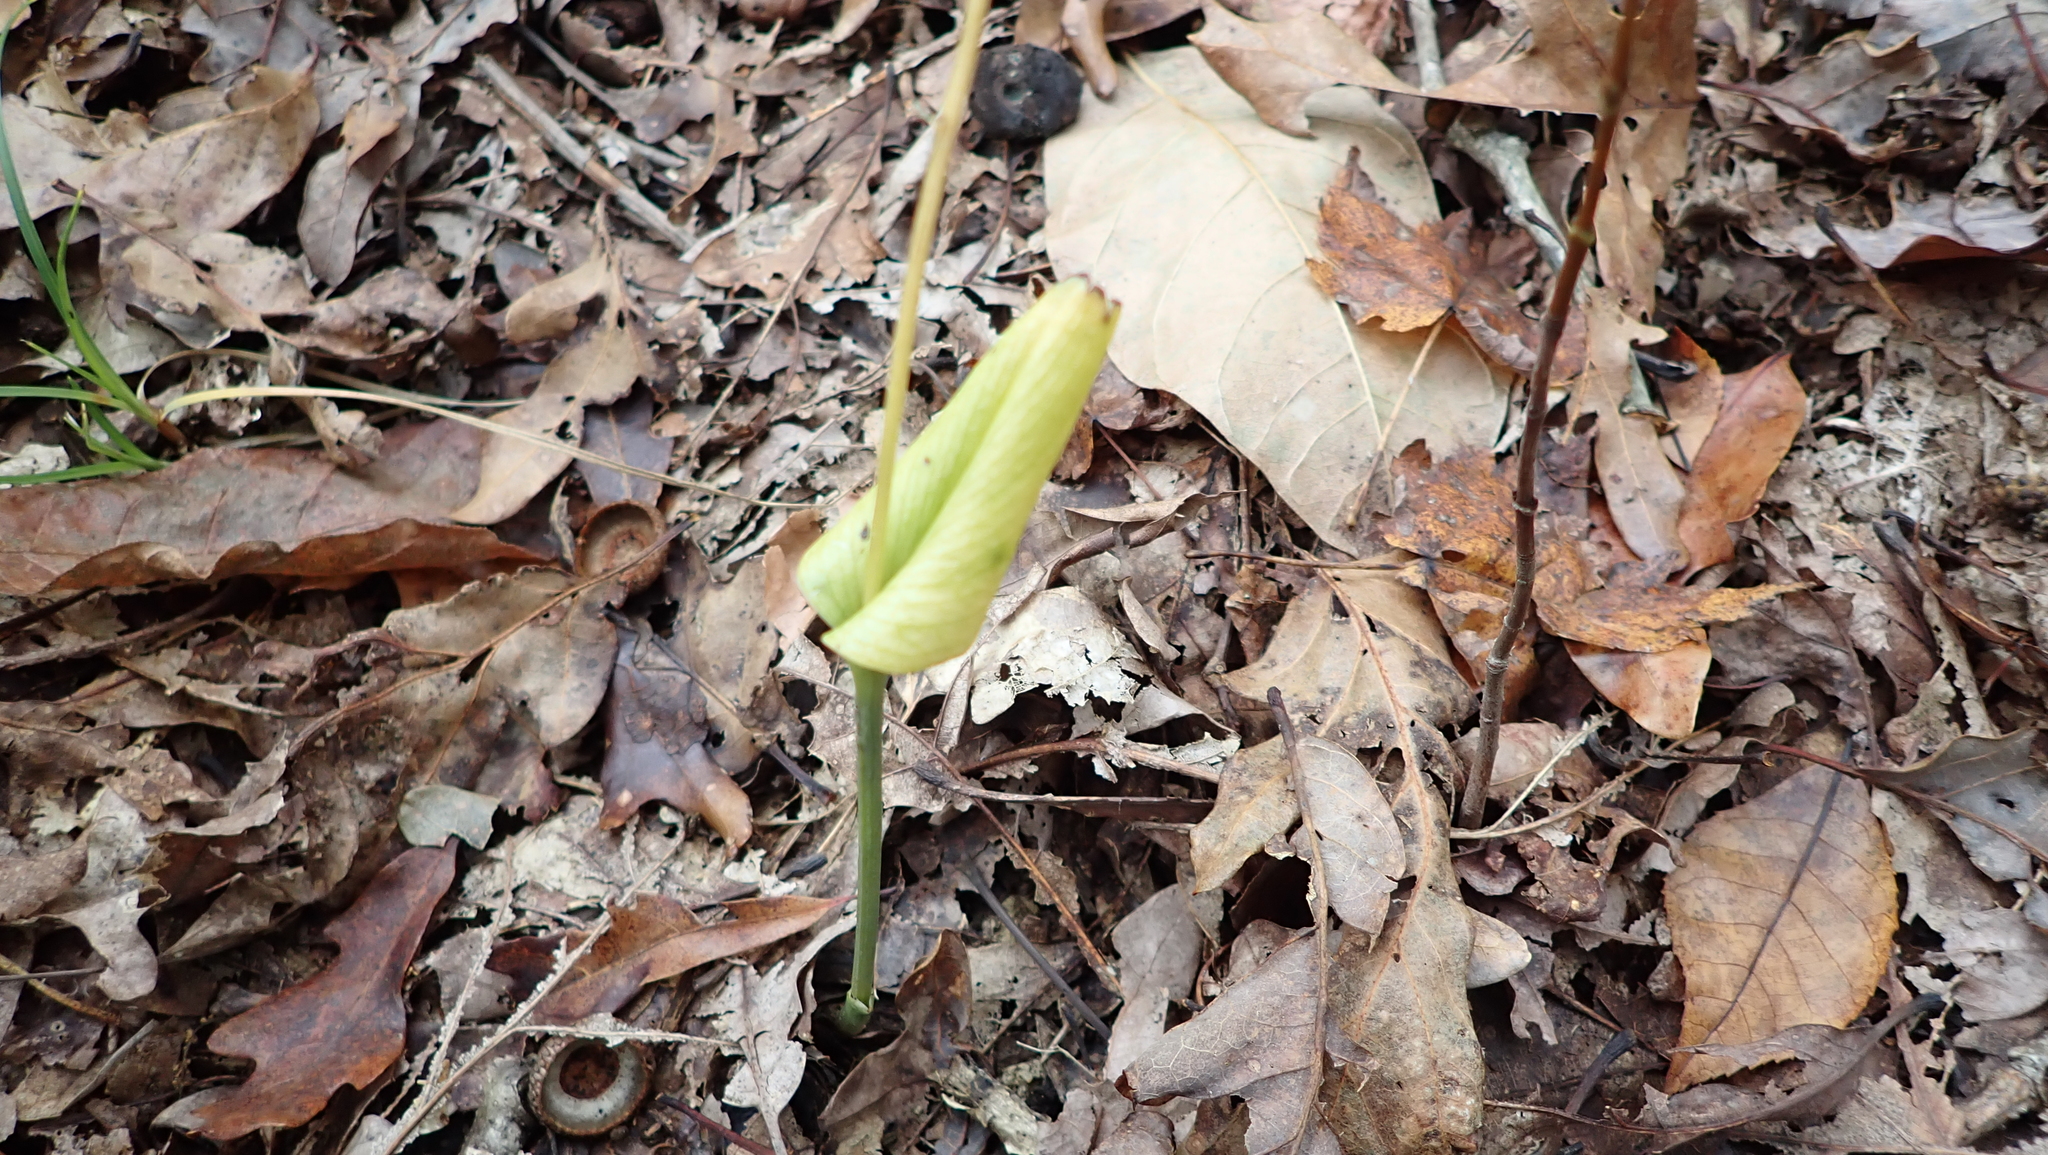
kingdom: Plantae
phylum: Tracheophyta
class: Liliopsida
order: Asparagales
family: Orchidaceae
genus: Malaxis
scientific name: Malaxis unifolia
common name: Green adder's-mouth
